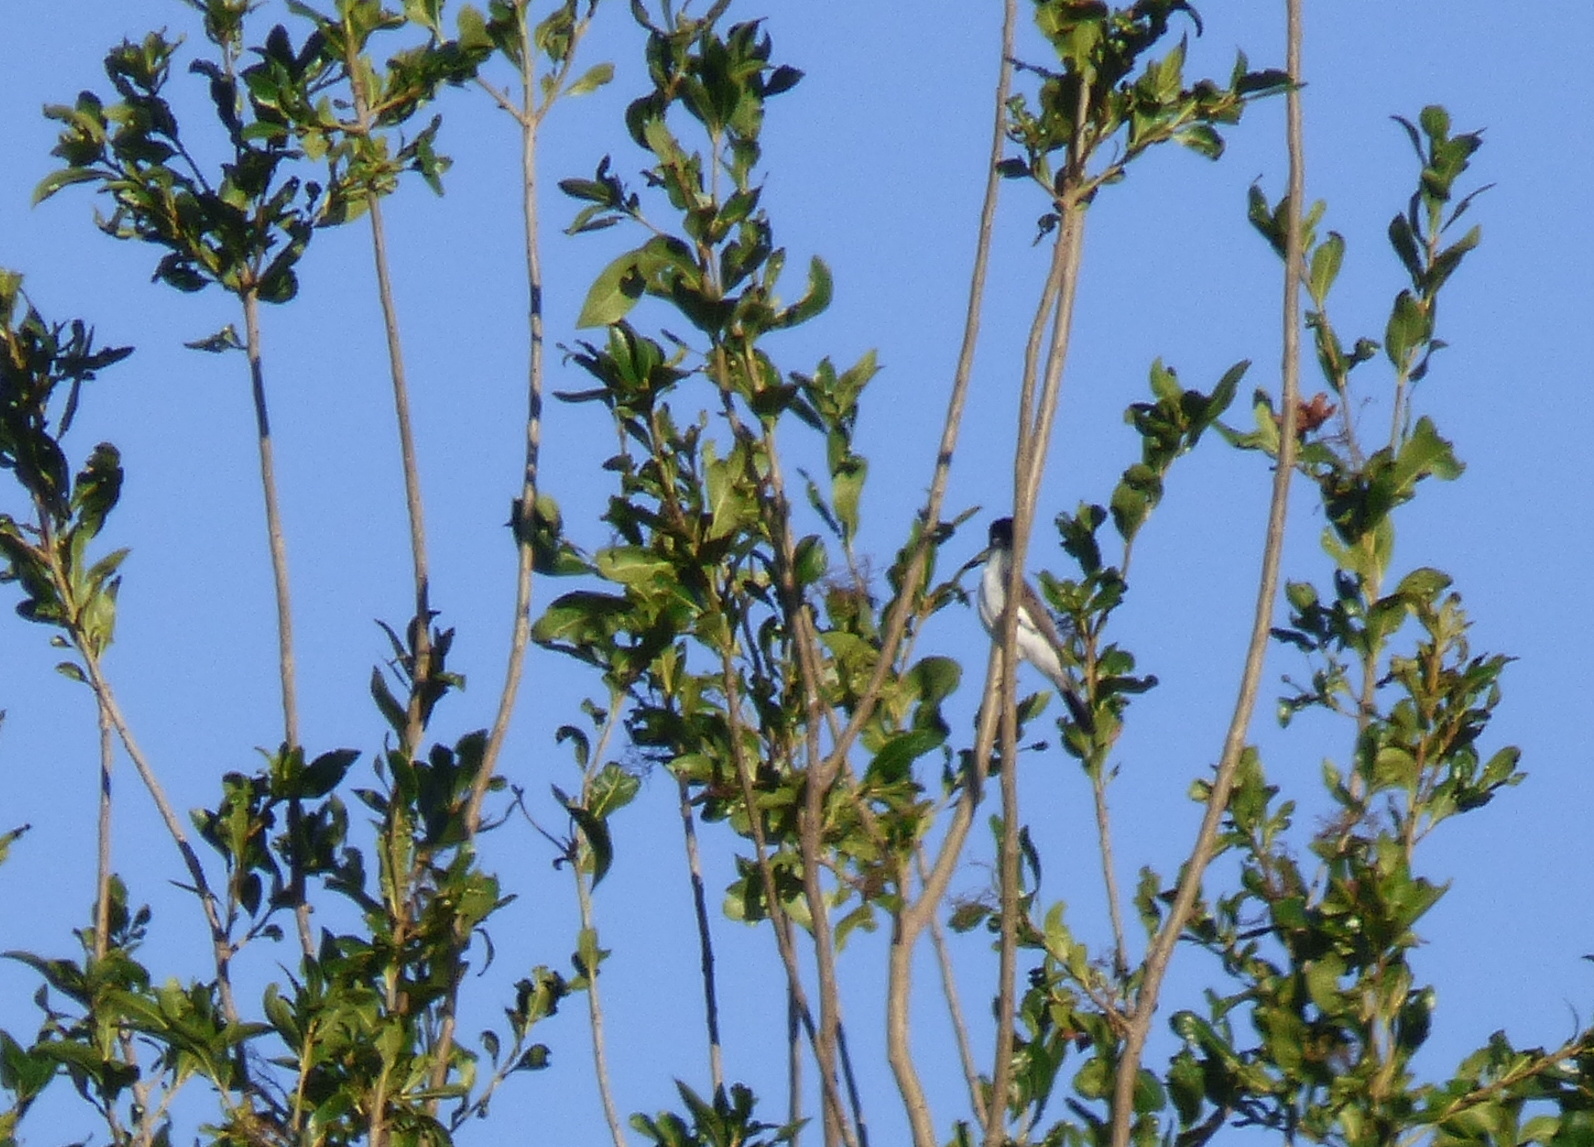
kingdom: Animalia
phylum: Chordata
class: Aves
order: Passeriformes
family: Cotingidae
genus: Xenopsaris
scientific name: Xenopsaris albinucha
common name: White-naped xenopsaris
